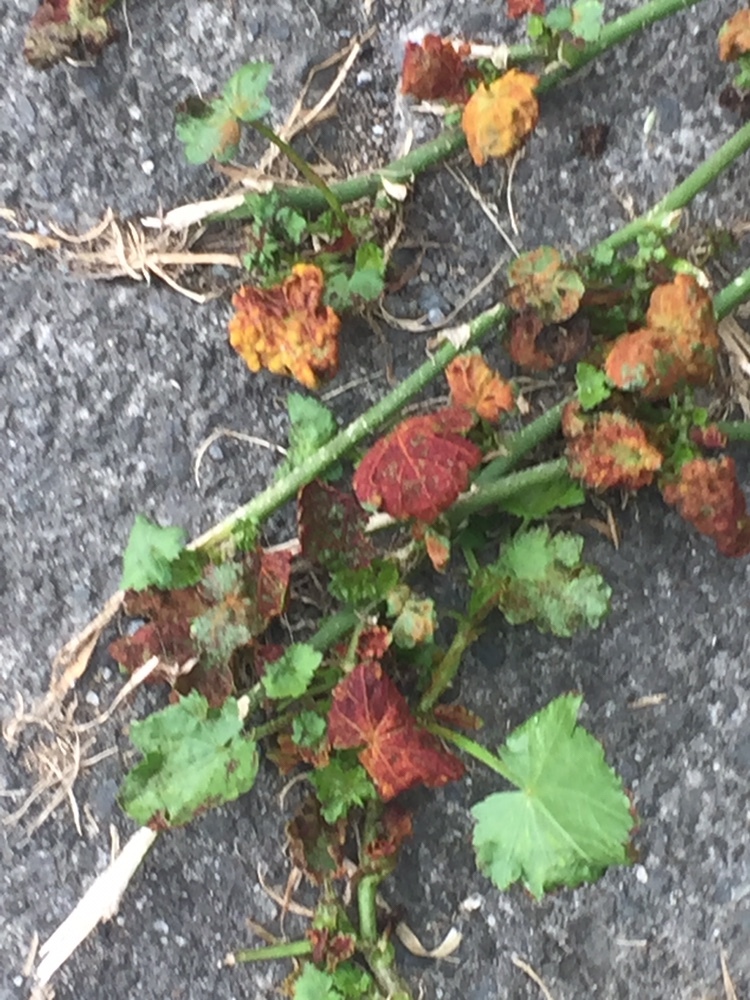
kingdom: Fungi
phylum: Chytridiomycota
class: Chytridiomycetes
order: Chytridiales
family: Synchytriaceae
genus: Synchytrium
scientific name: Synchytrium australe
